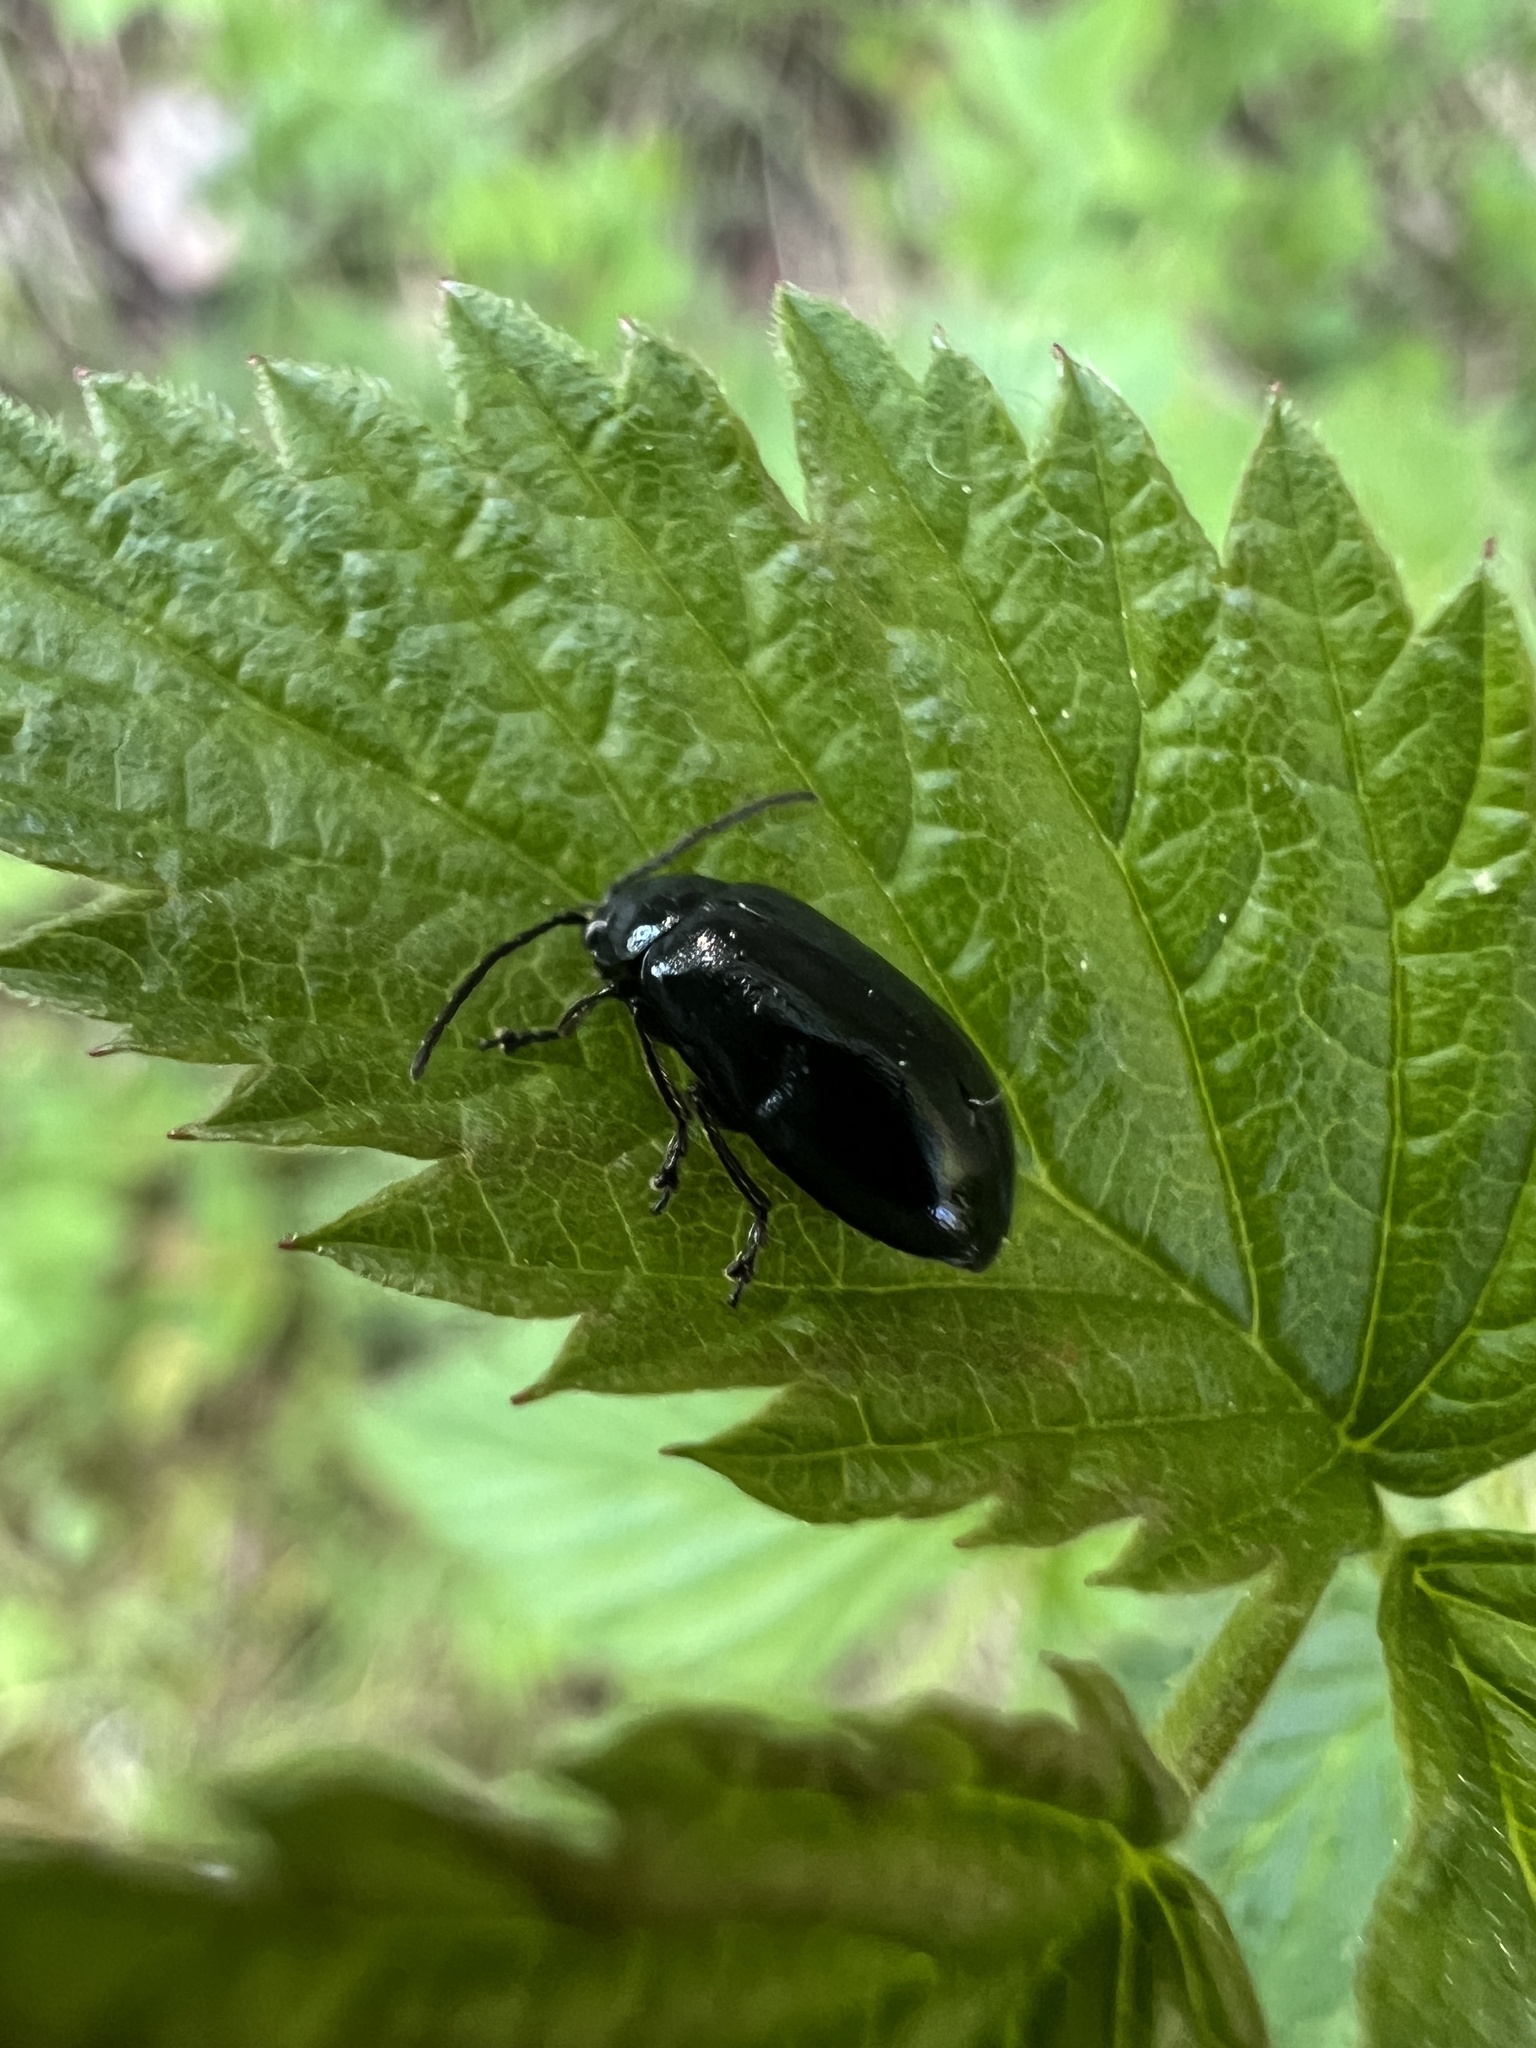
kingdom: Animalia
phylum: Arthropoda
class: Insecta
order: Coleoptera
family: Chrysomelidae
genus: Agelastica
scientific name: Agelastica alni
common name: Alder leaf beetle
